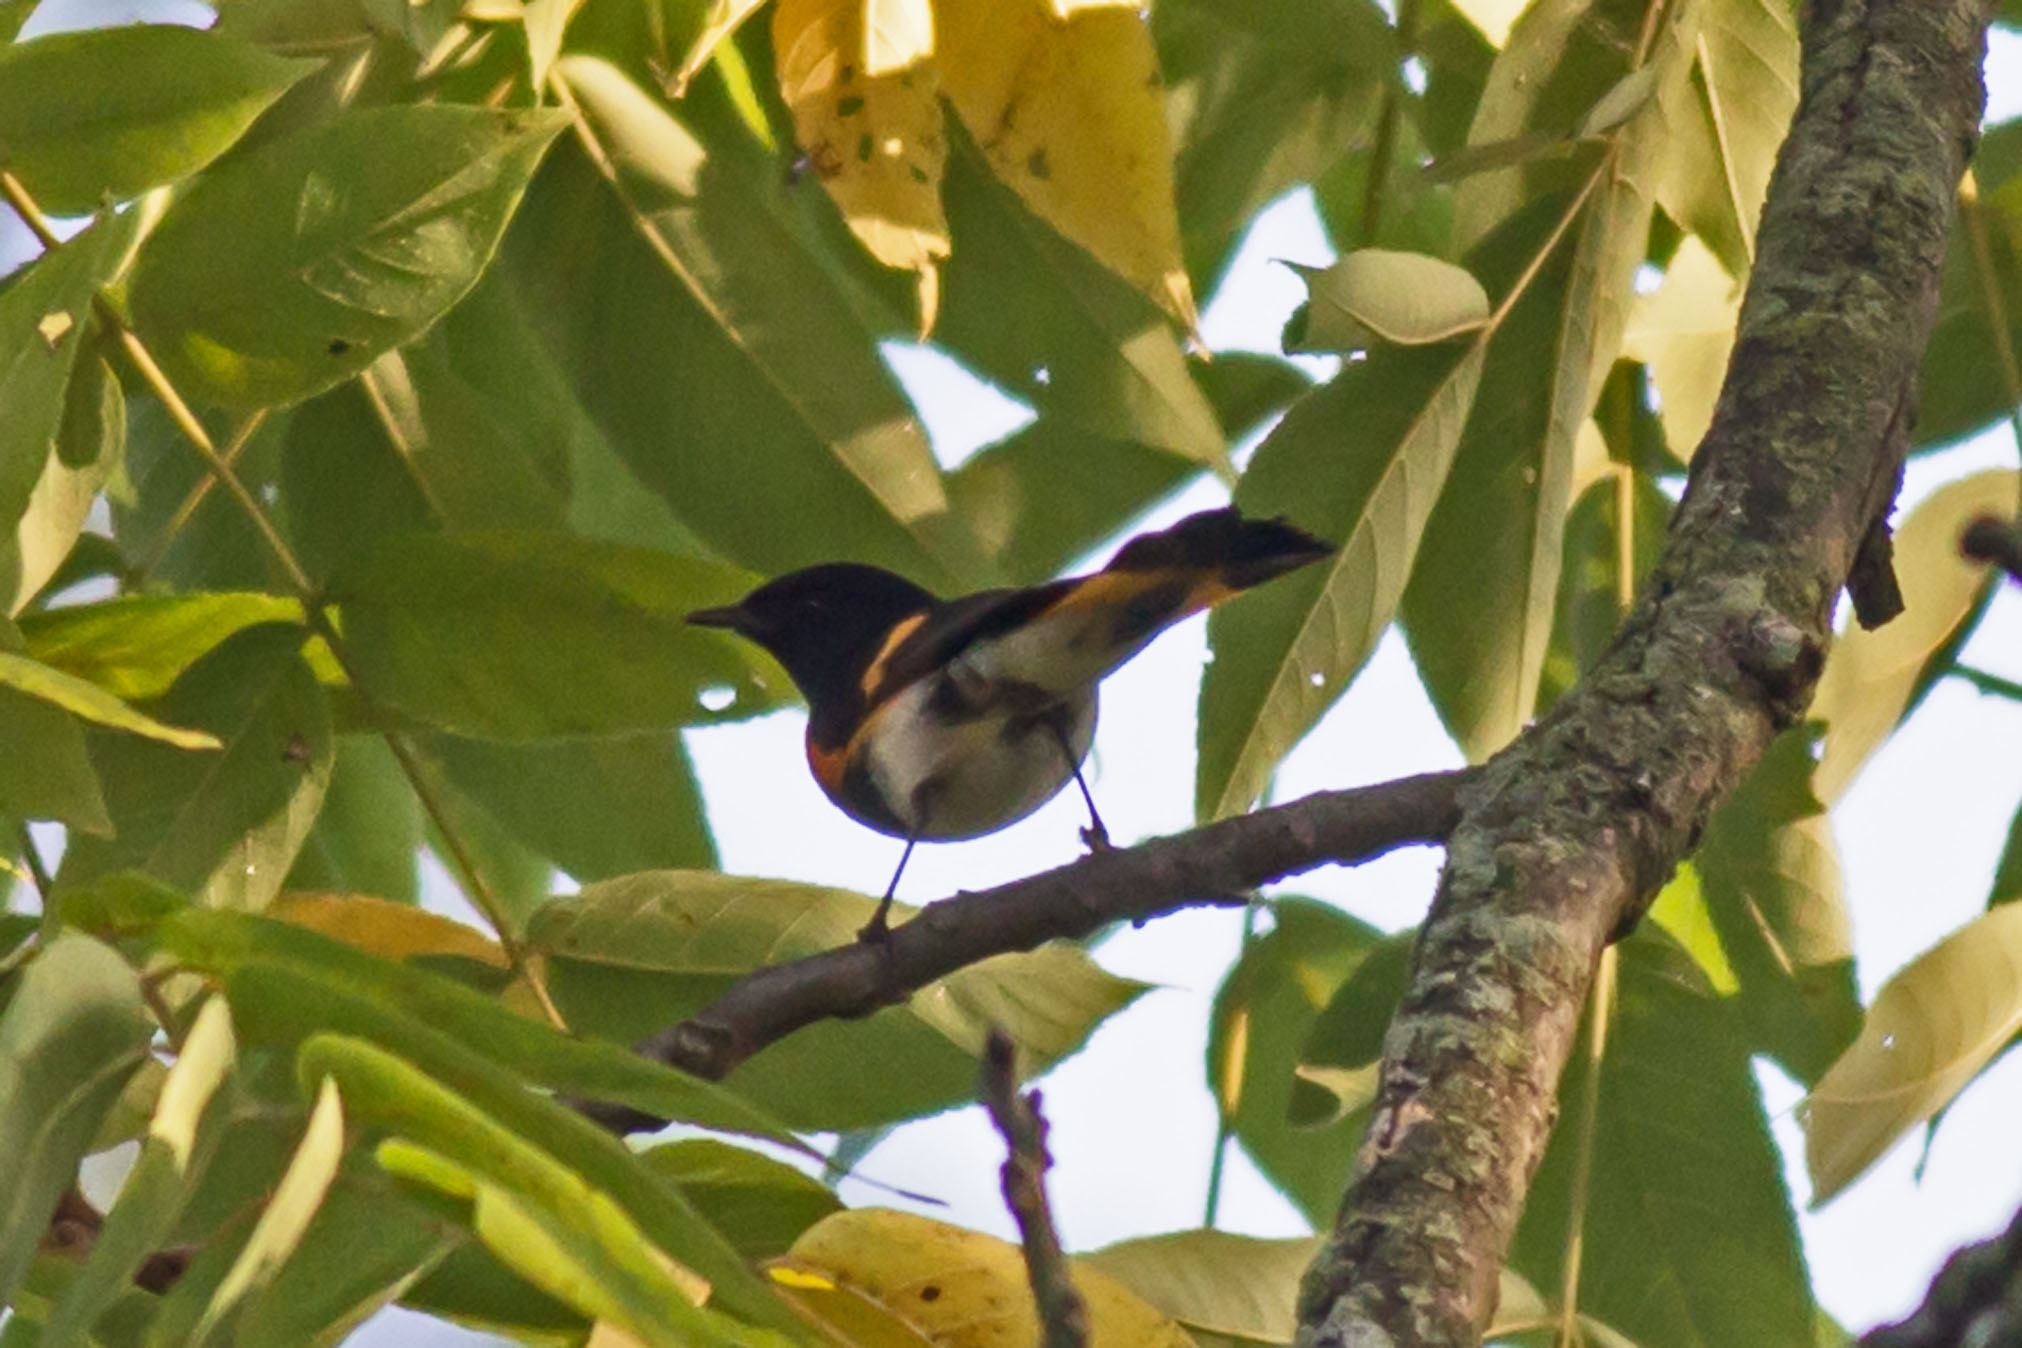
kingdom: Animalia
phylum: Chordata
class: Aves
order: Passeriformes
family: Parulidae
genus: Setophaga
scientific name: Setophaga ruticilla
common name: American redstart
